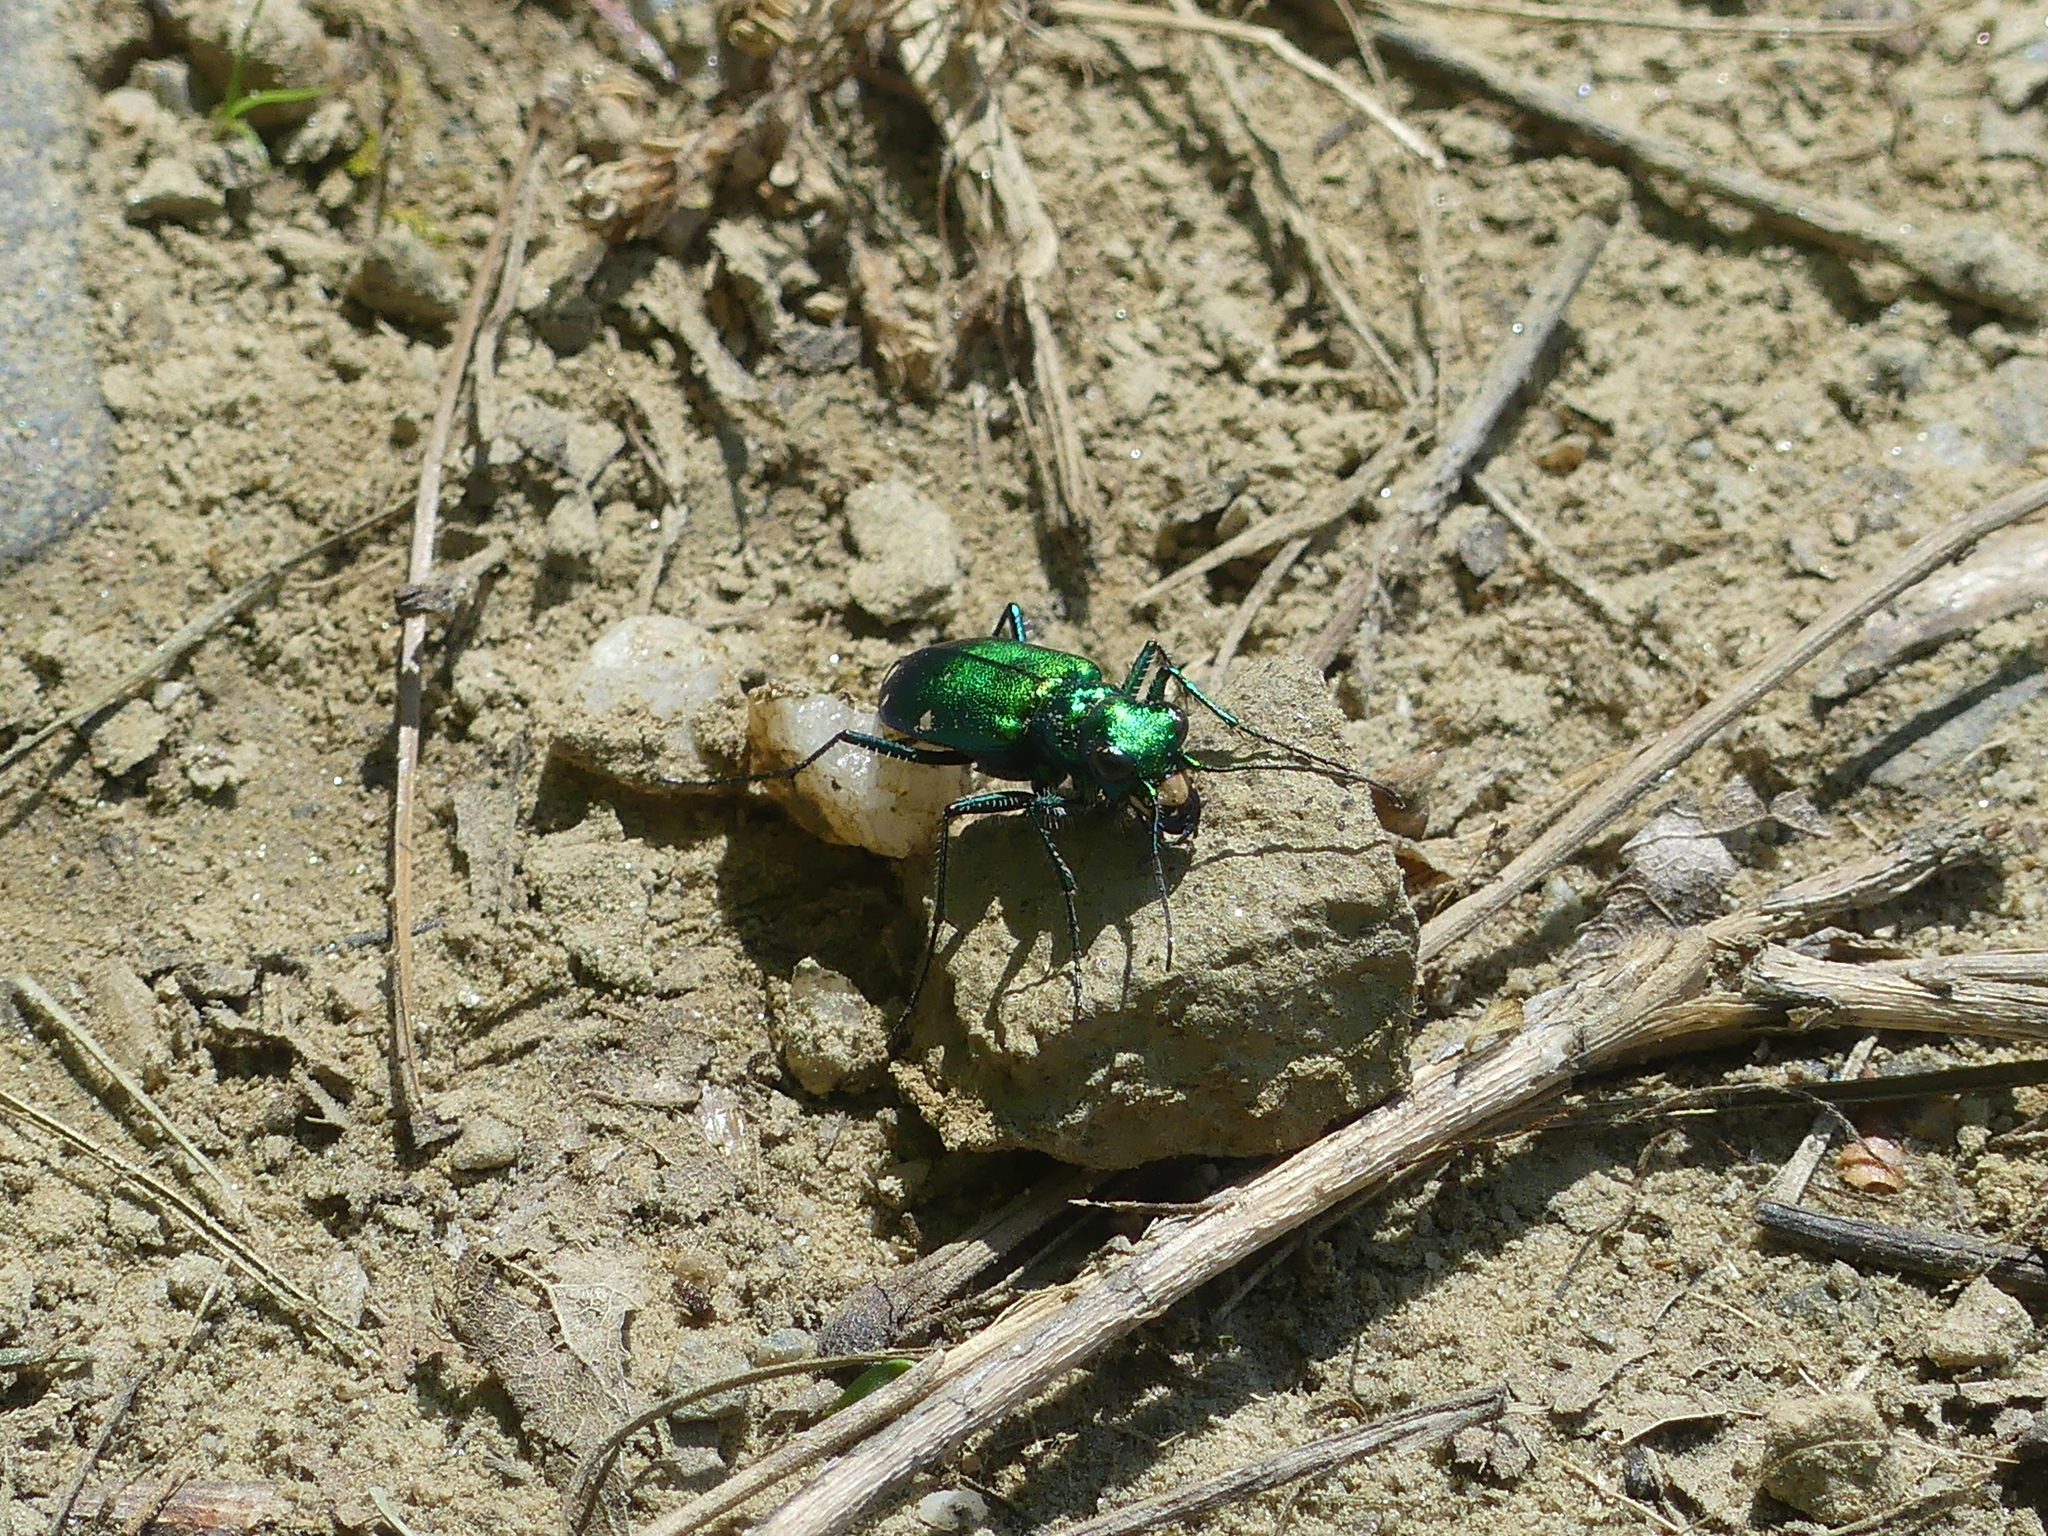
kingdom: Animalia
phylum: Arthropoda
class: Insecta
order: Coleoptera
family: Carabidae
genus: Cicindela
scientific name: Cicindela sexguttata
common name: Six-spotted tiger beetle
